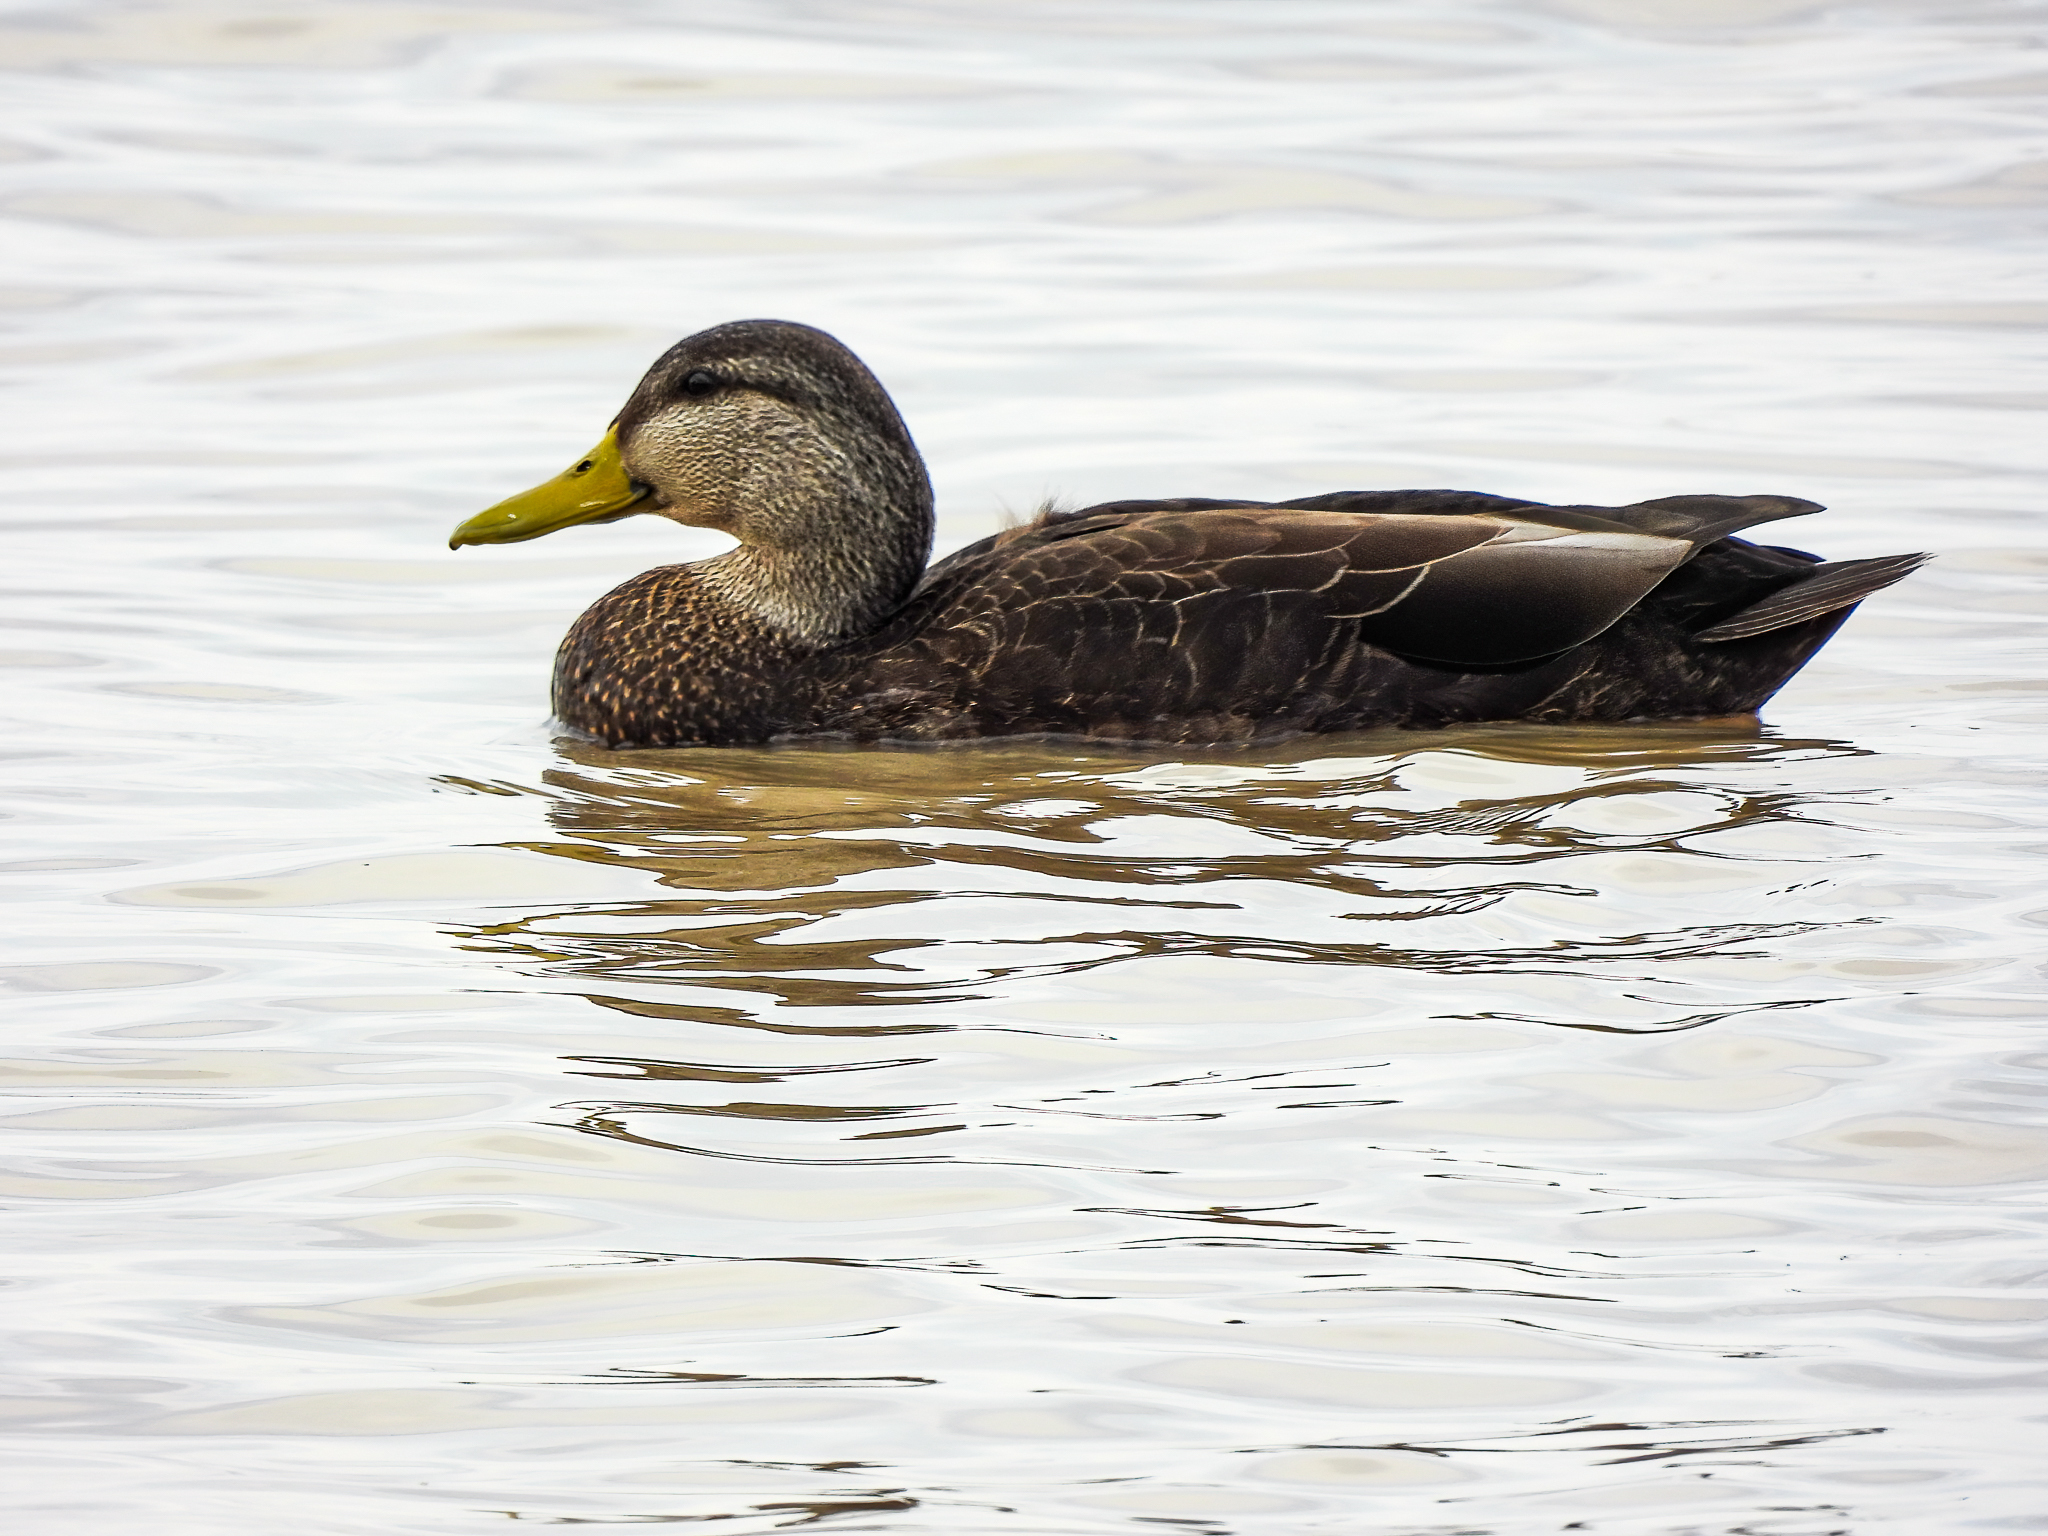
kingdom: Animalia
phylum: Chordata
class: Aves
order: Anseriformes
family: Anatidae
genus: Anas
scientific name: Anas rubripes
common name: American black duck
